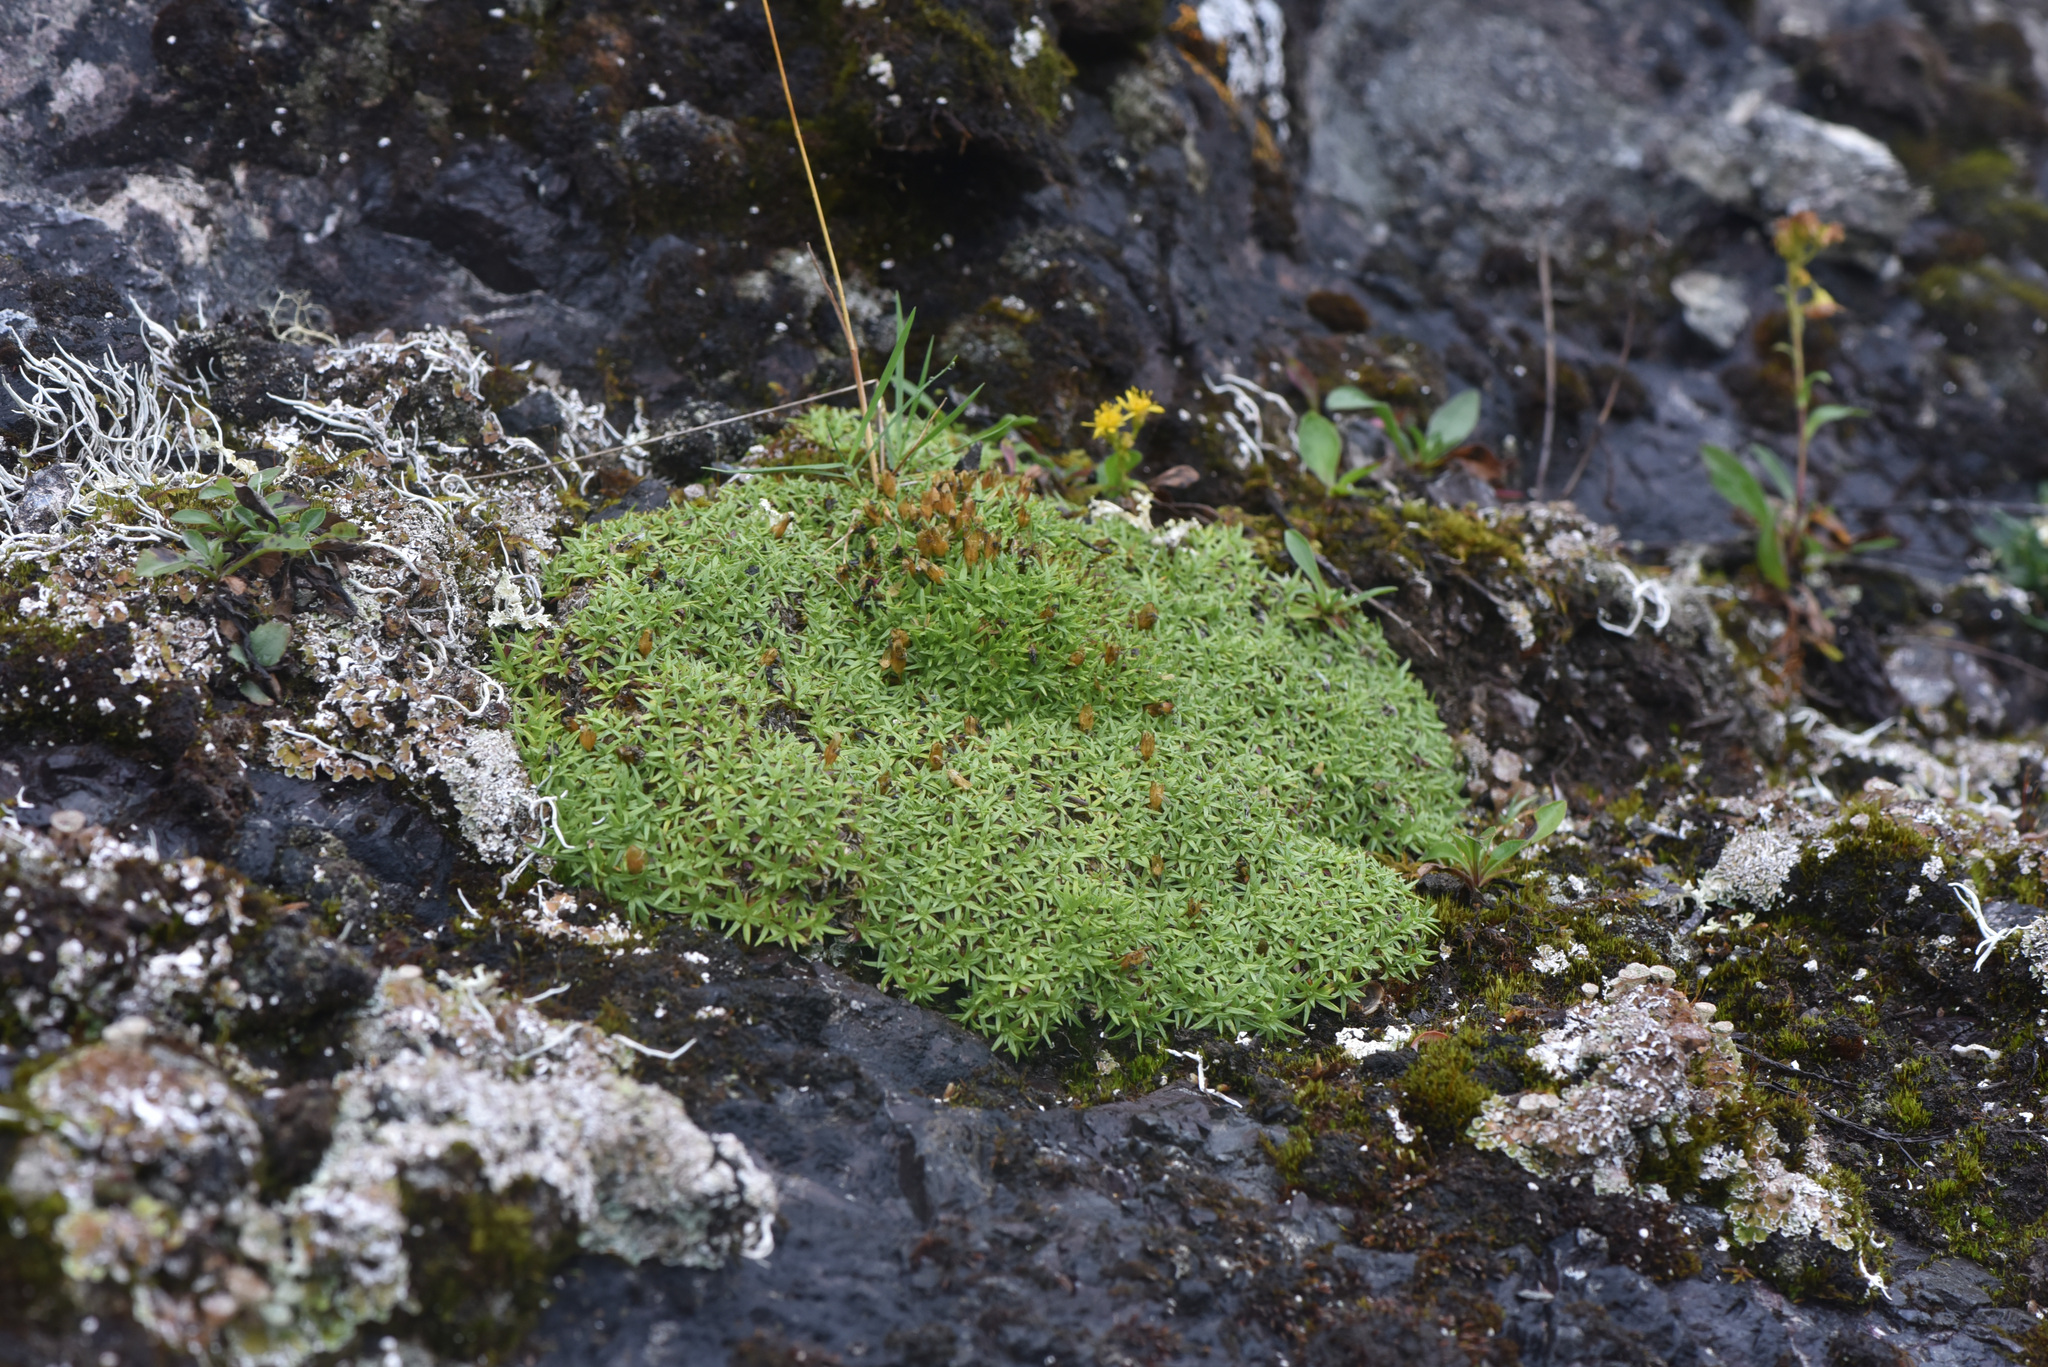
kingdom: Plantae
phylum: Tracheophyta
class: Magnoliopsida
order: Caryophyllales
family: Caryophyllaceae
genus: Silene
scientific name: Silene acaulis
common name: Moss campion
